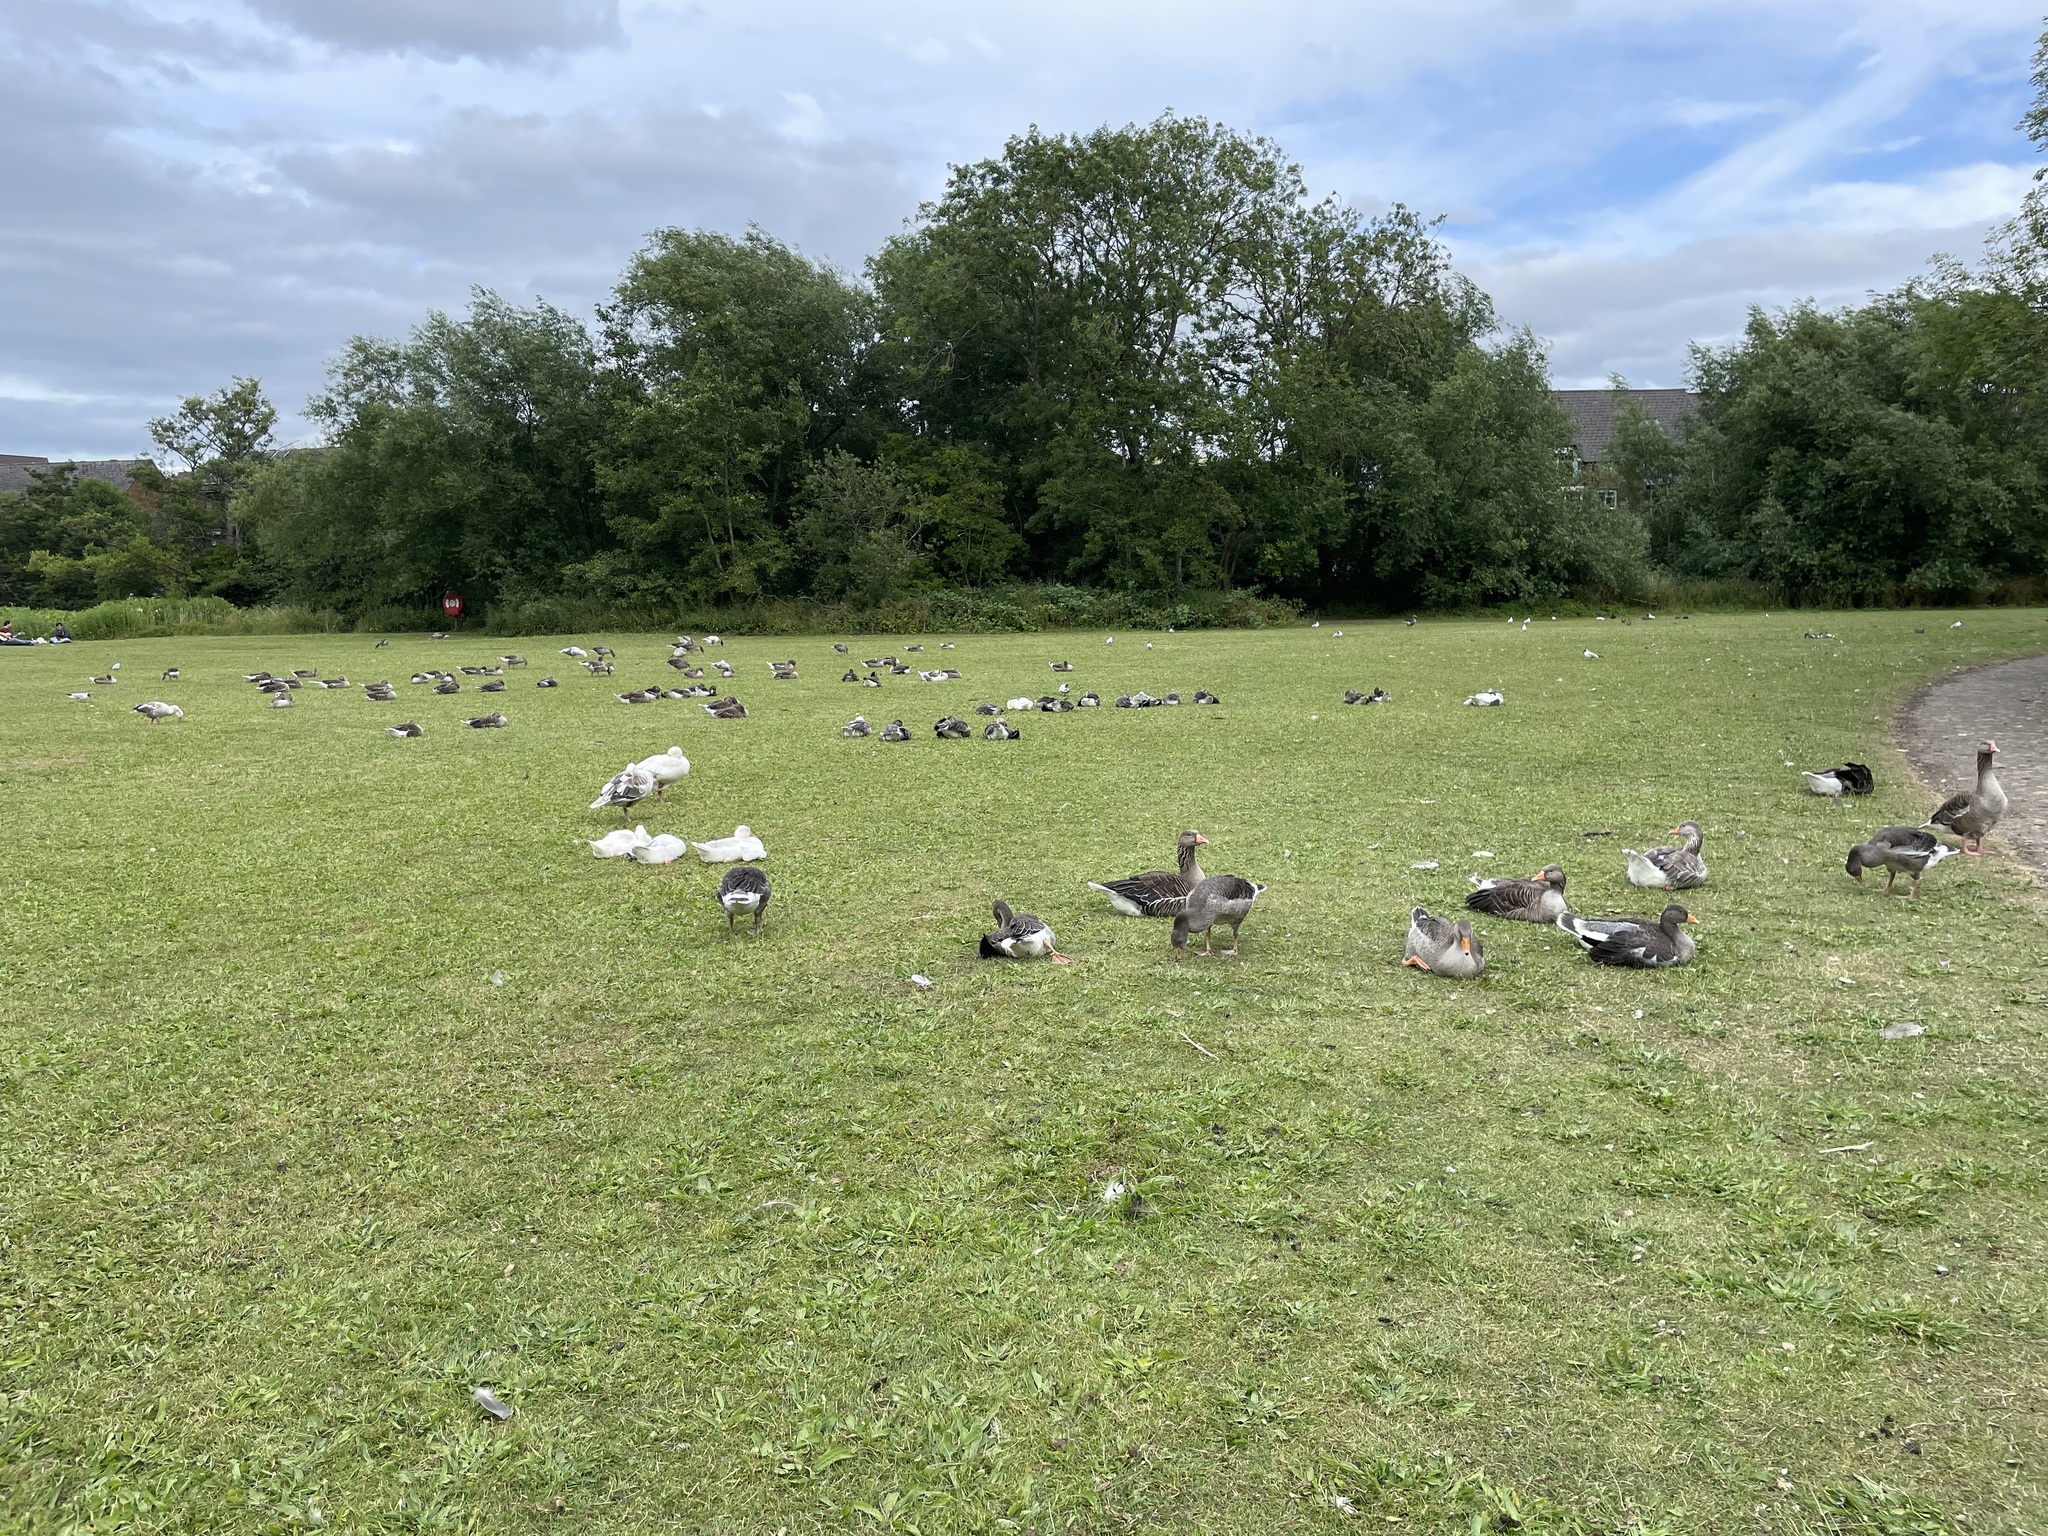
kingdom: Animalia
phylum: Chordata
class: Aves
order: Anseriformes
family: Anatidae
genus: Anser
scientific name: Anser anser
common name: Greylag goose
